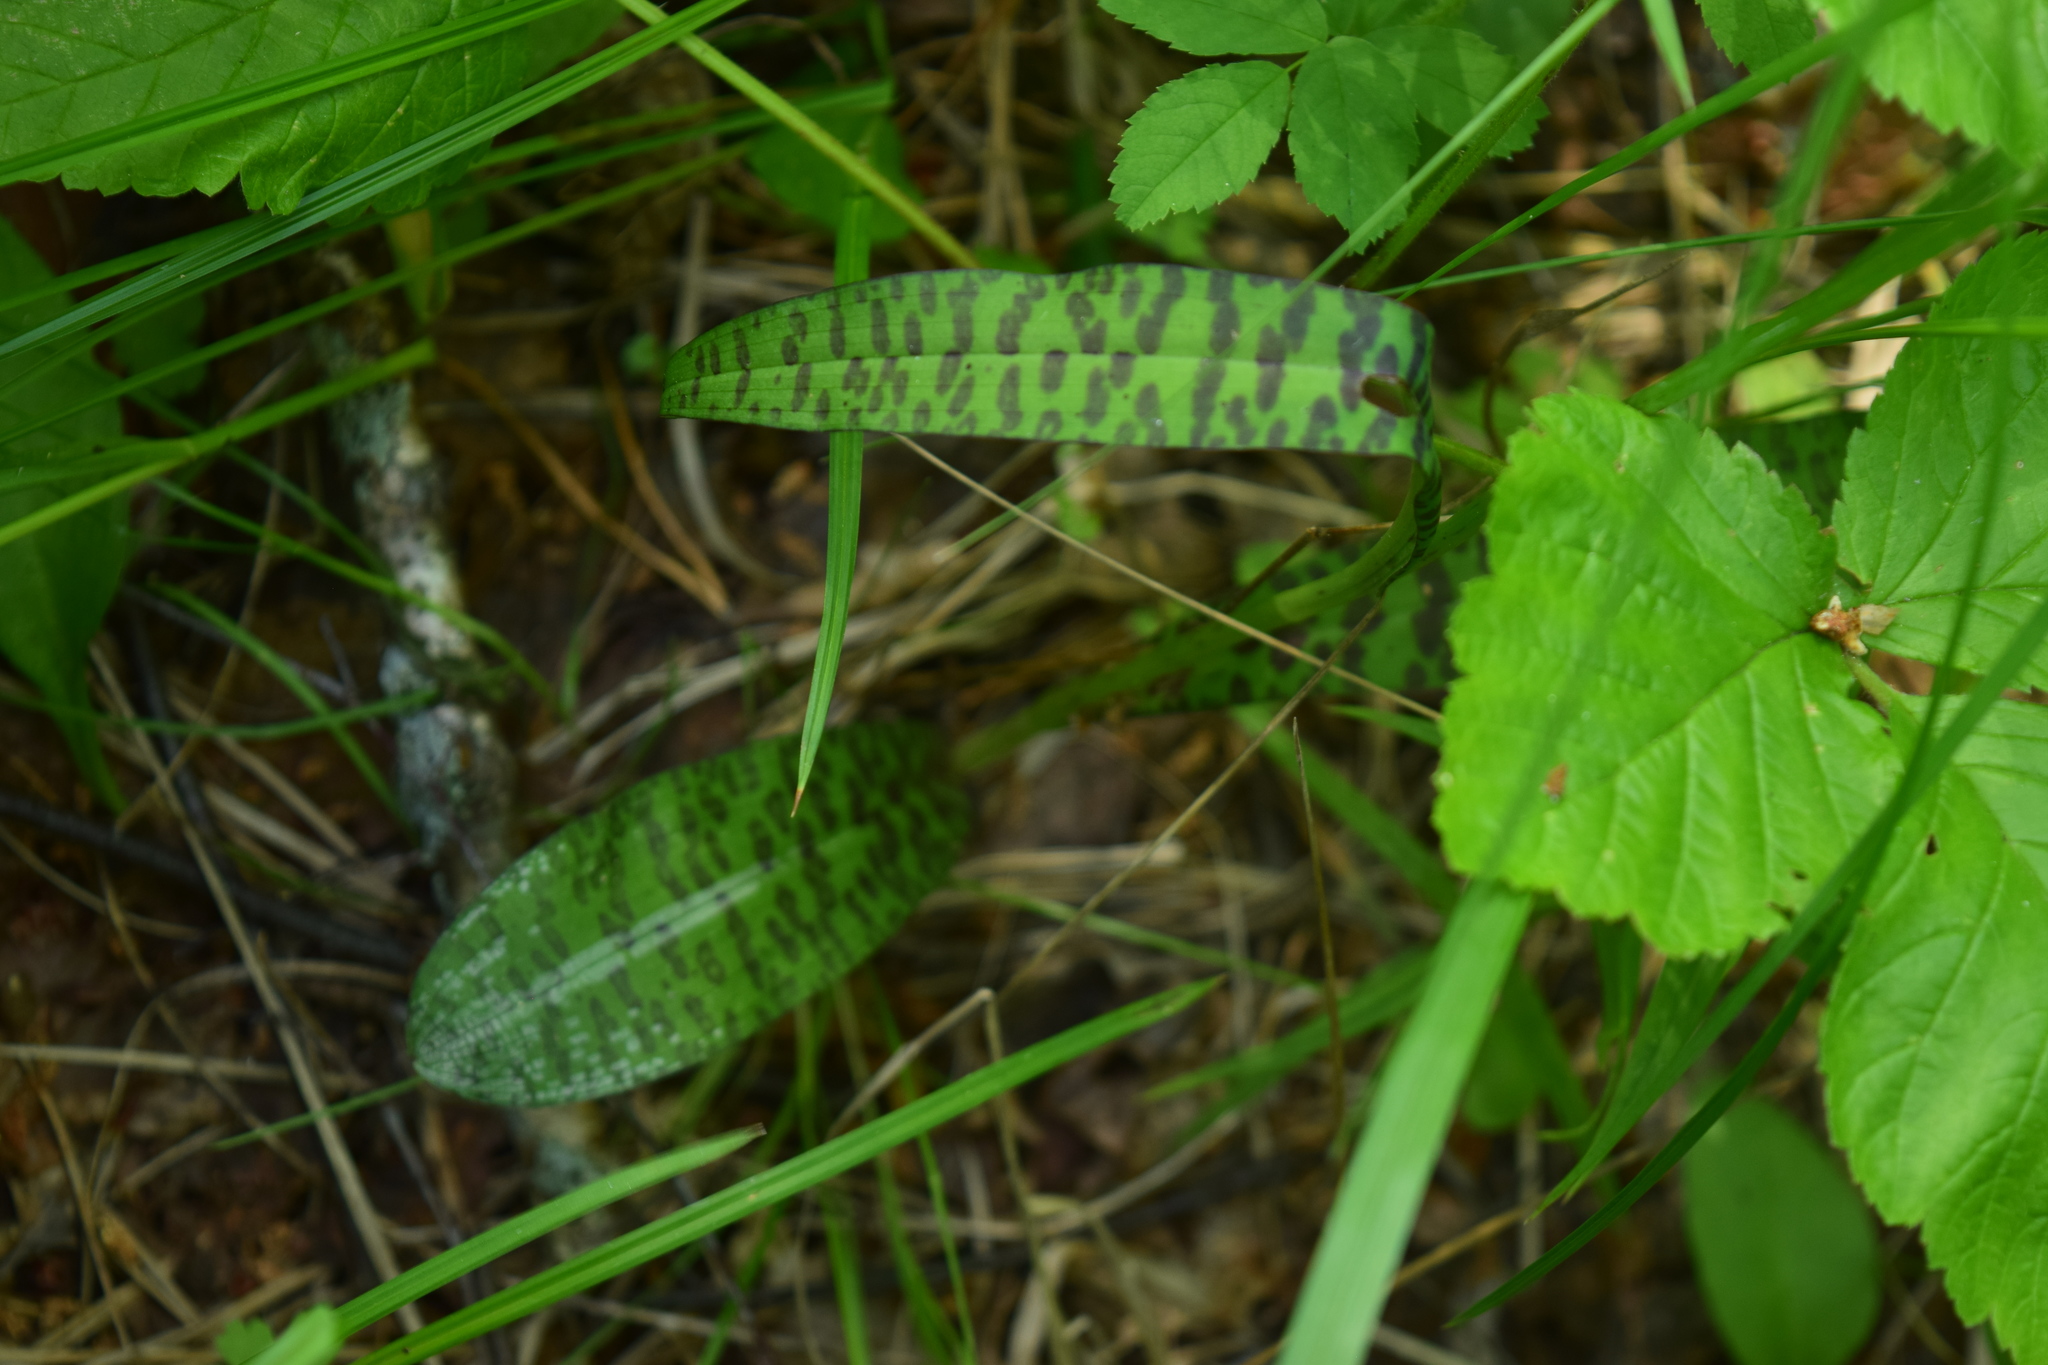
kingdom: Plantae
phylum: Tracheophyta
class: Liliopsida
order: Asparagales
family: Orchidaceae
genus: Dactylorhiza
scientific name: Dactylorhiza maculata
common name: Heath spotted-orchid
